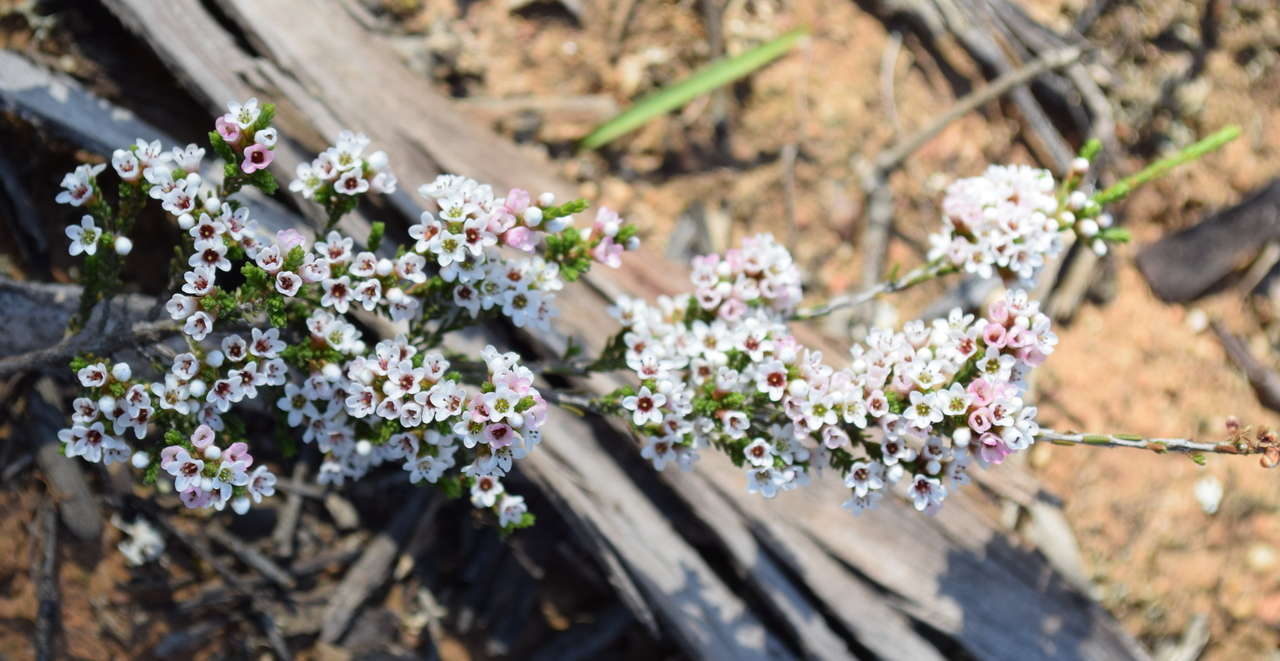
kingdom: Plantae
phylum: Tracheophyta
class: Magnoliopsida
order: Myrtales
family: Myrtaceae
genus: Micromyrtus
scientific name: Micromyrtus ciliata
